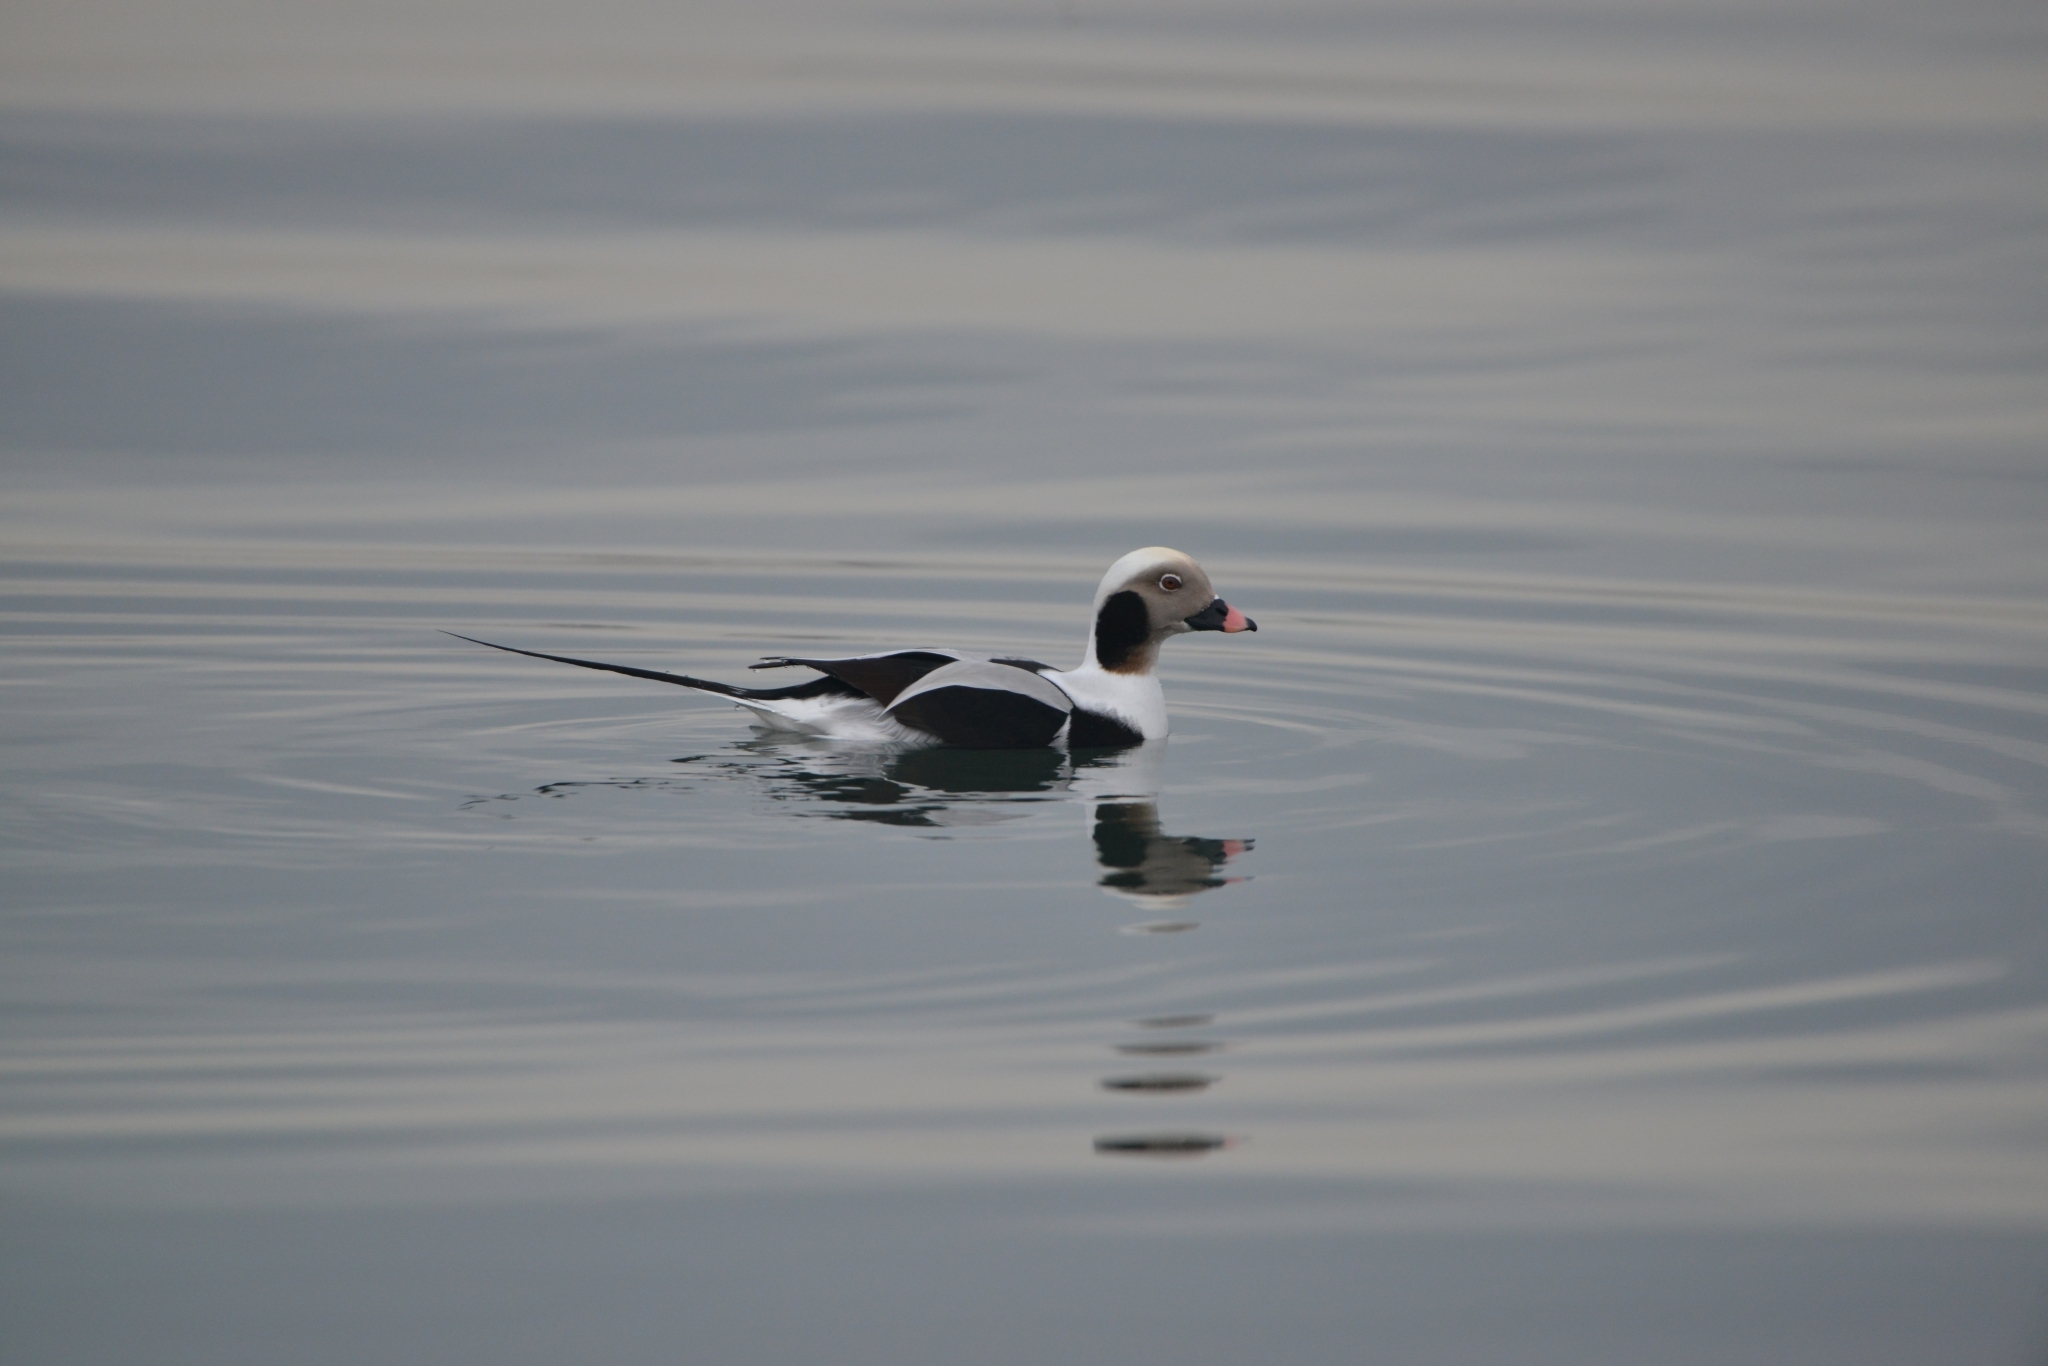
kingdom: Animalia
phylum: Chordata
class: Aves
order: Anseriformes
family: Anatidae
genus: Clangula
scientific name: Clangula hyemalis
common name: Long-tailed duck
